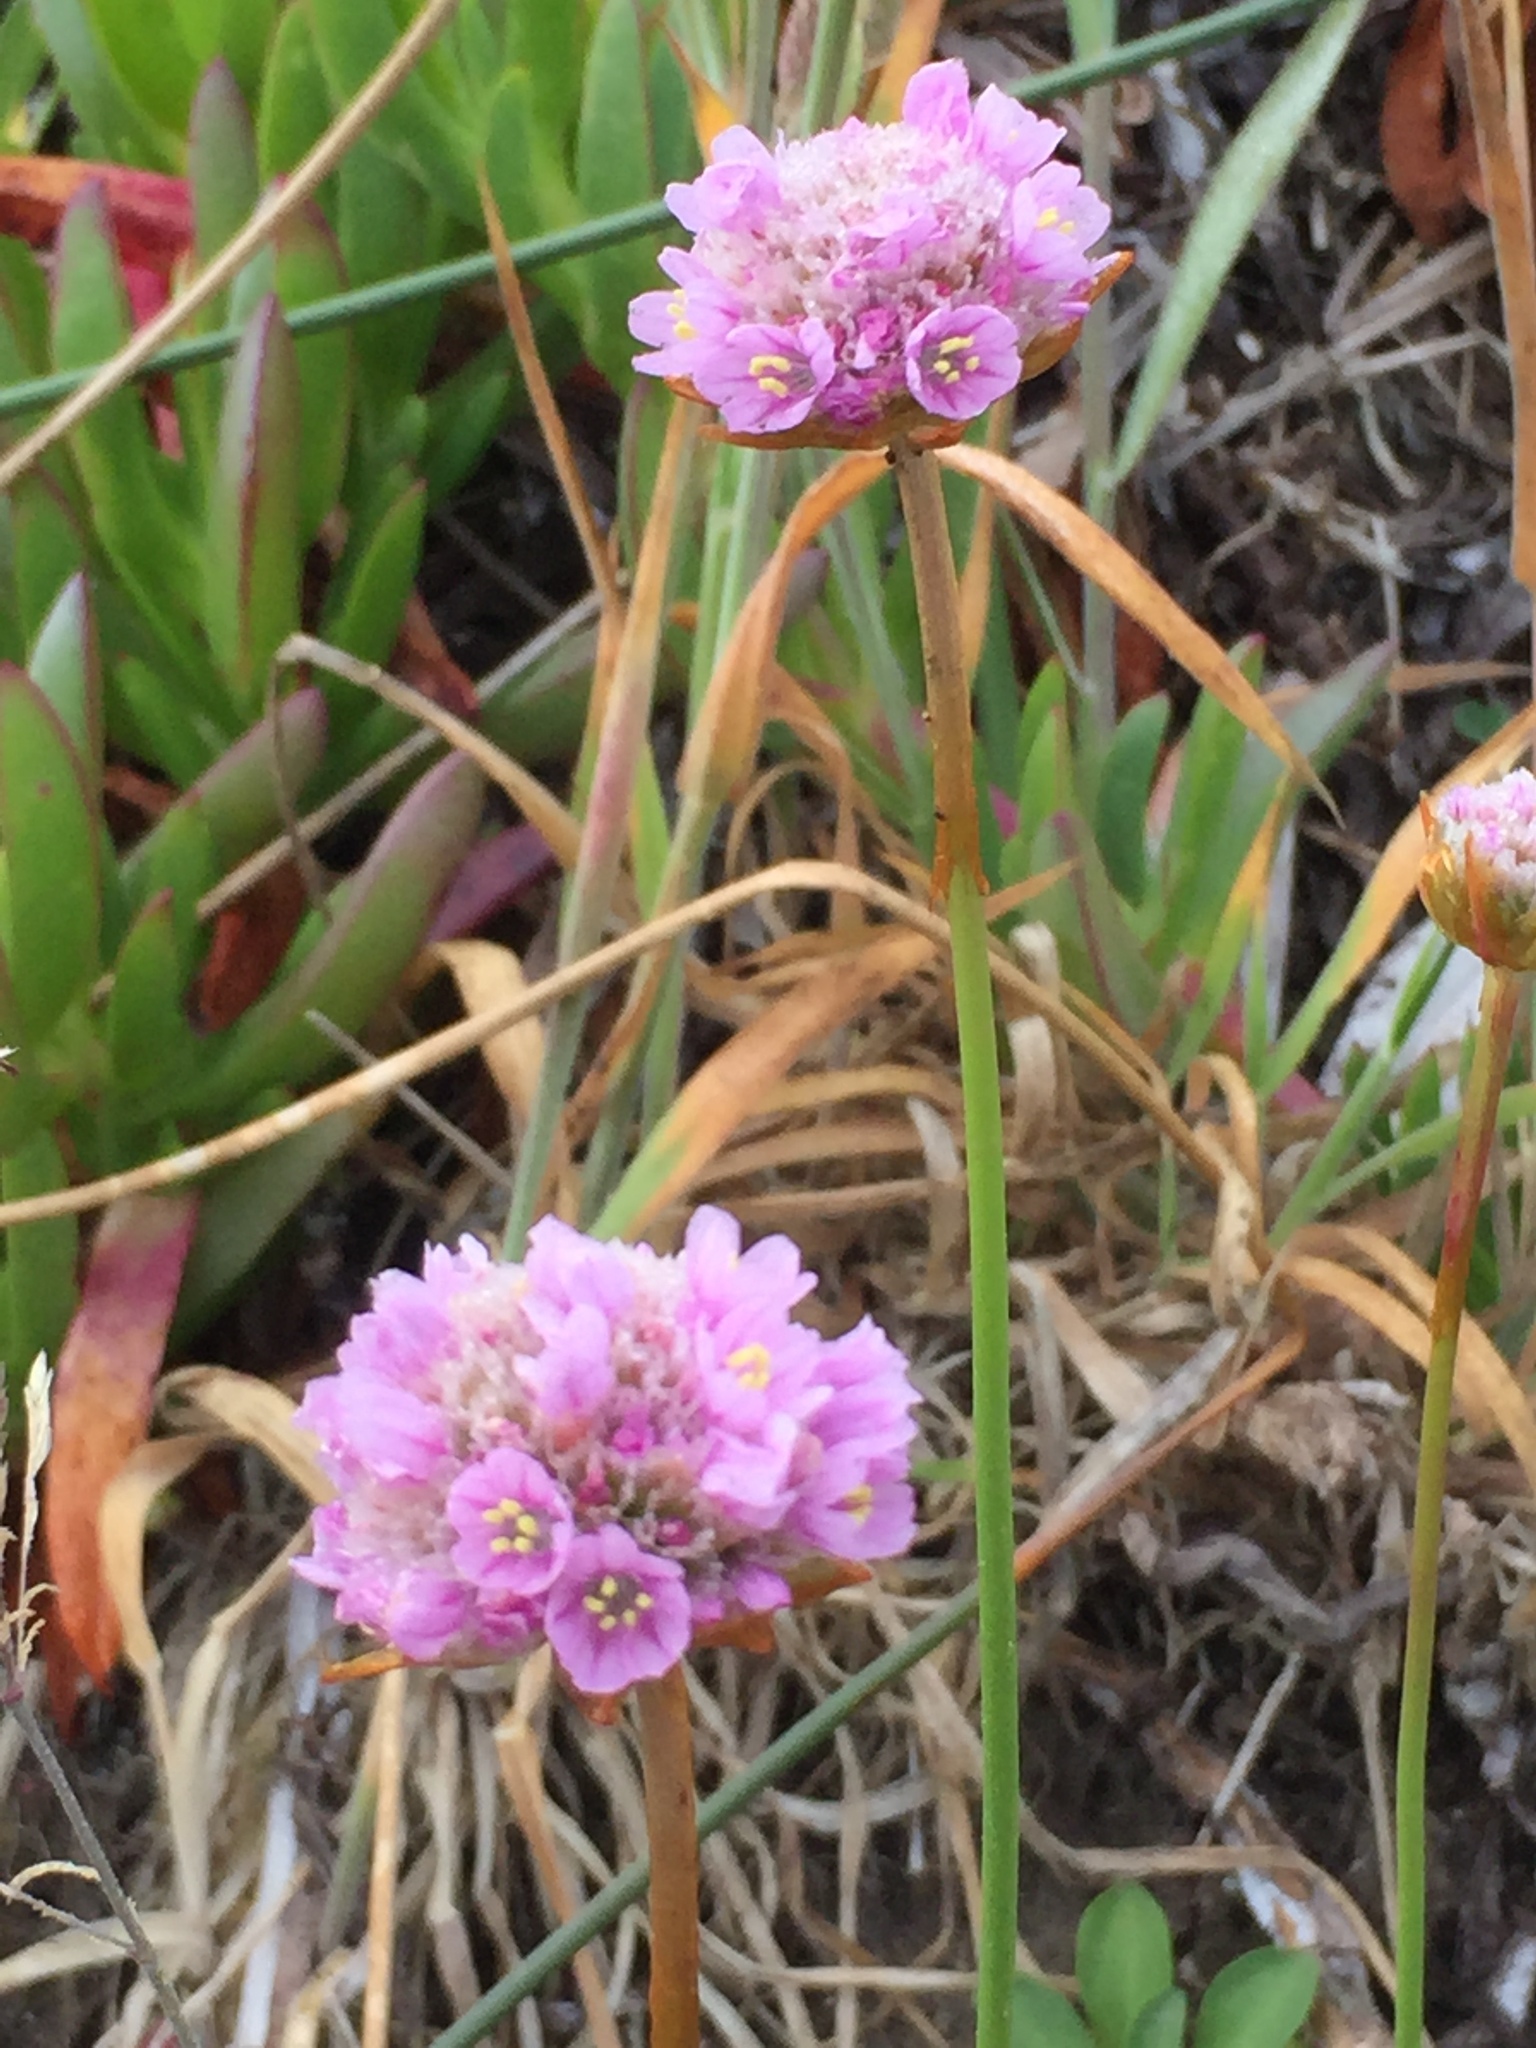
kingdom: Plantae
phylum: Tracheophyta
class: Magnoliopsida
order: Caryophyllales
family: Plumbaginaceae
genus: Armeria
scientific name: Armeria maritima
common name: Thrift
